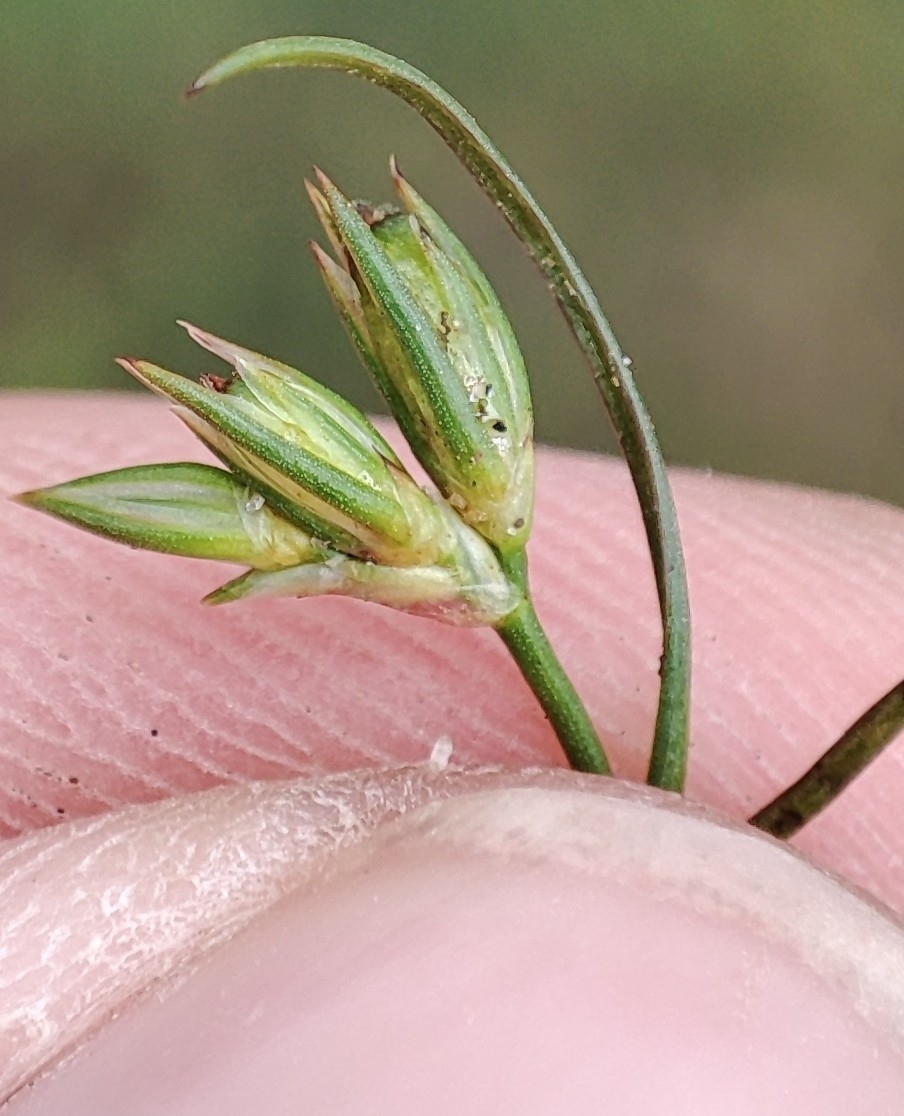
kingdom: Plantae
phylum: Tracheophyta
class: Liliopsida
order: Poales
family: Juncaceae
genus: Juncus
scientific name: Juncus bufonius
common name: Toad rush
